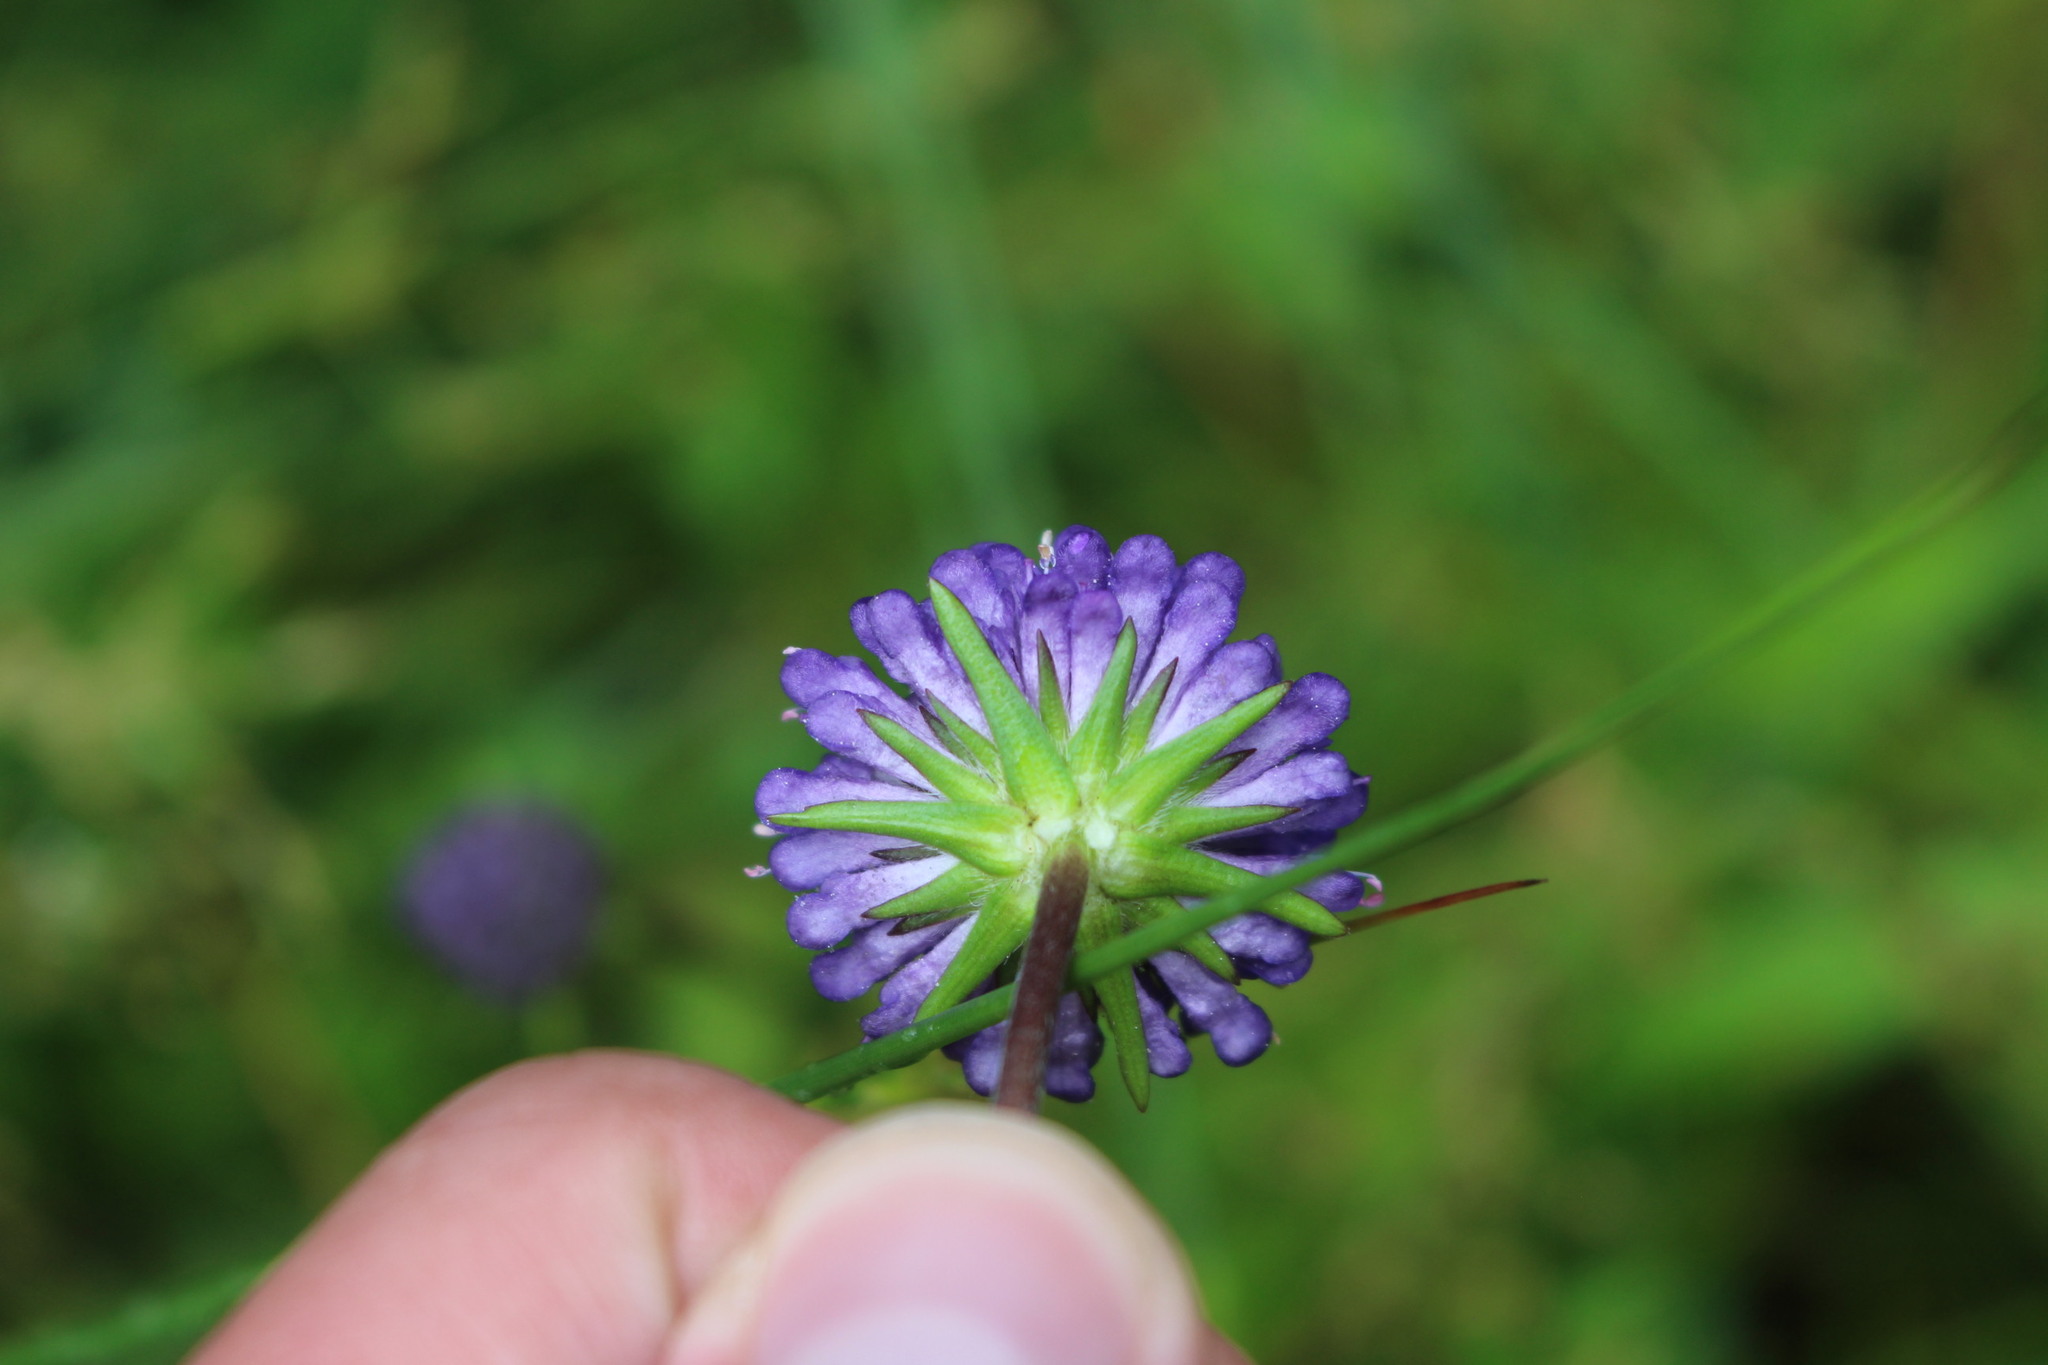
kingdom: Plantae
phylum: Tracheophyta
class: Magnoliopsida
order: Dipsacales
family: Caprifoliaceae
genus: Succisa
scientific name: Succisa pratensis
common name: Devil's-bit
